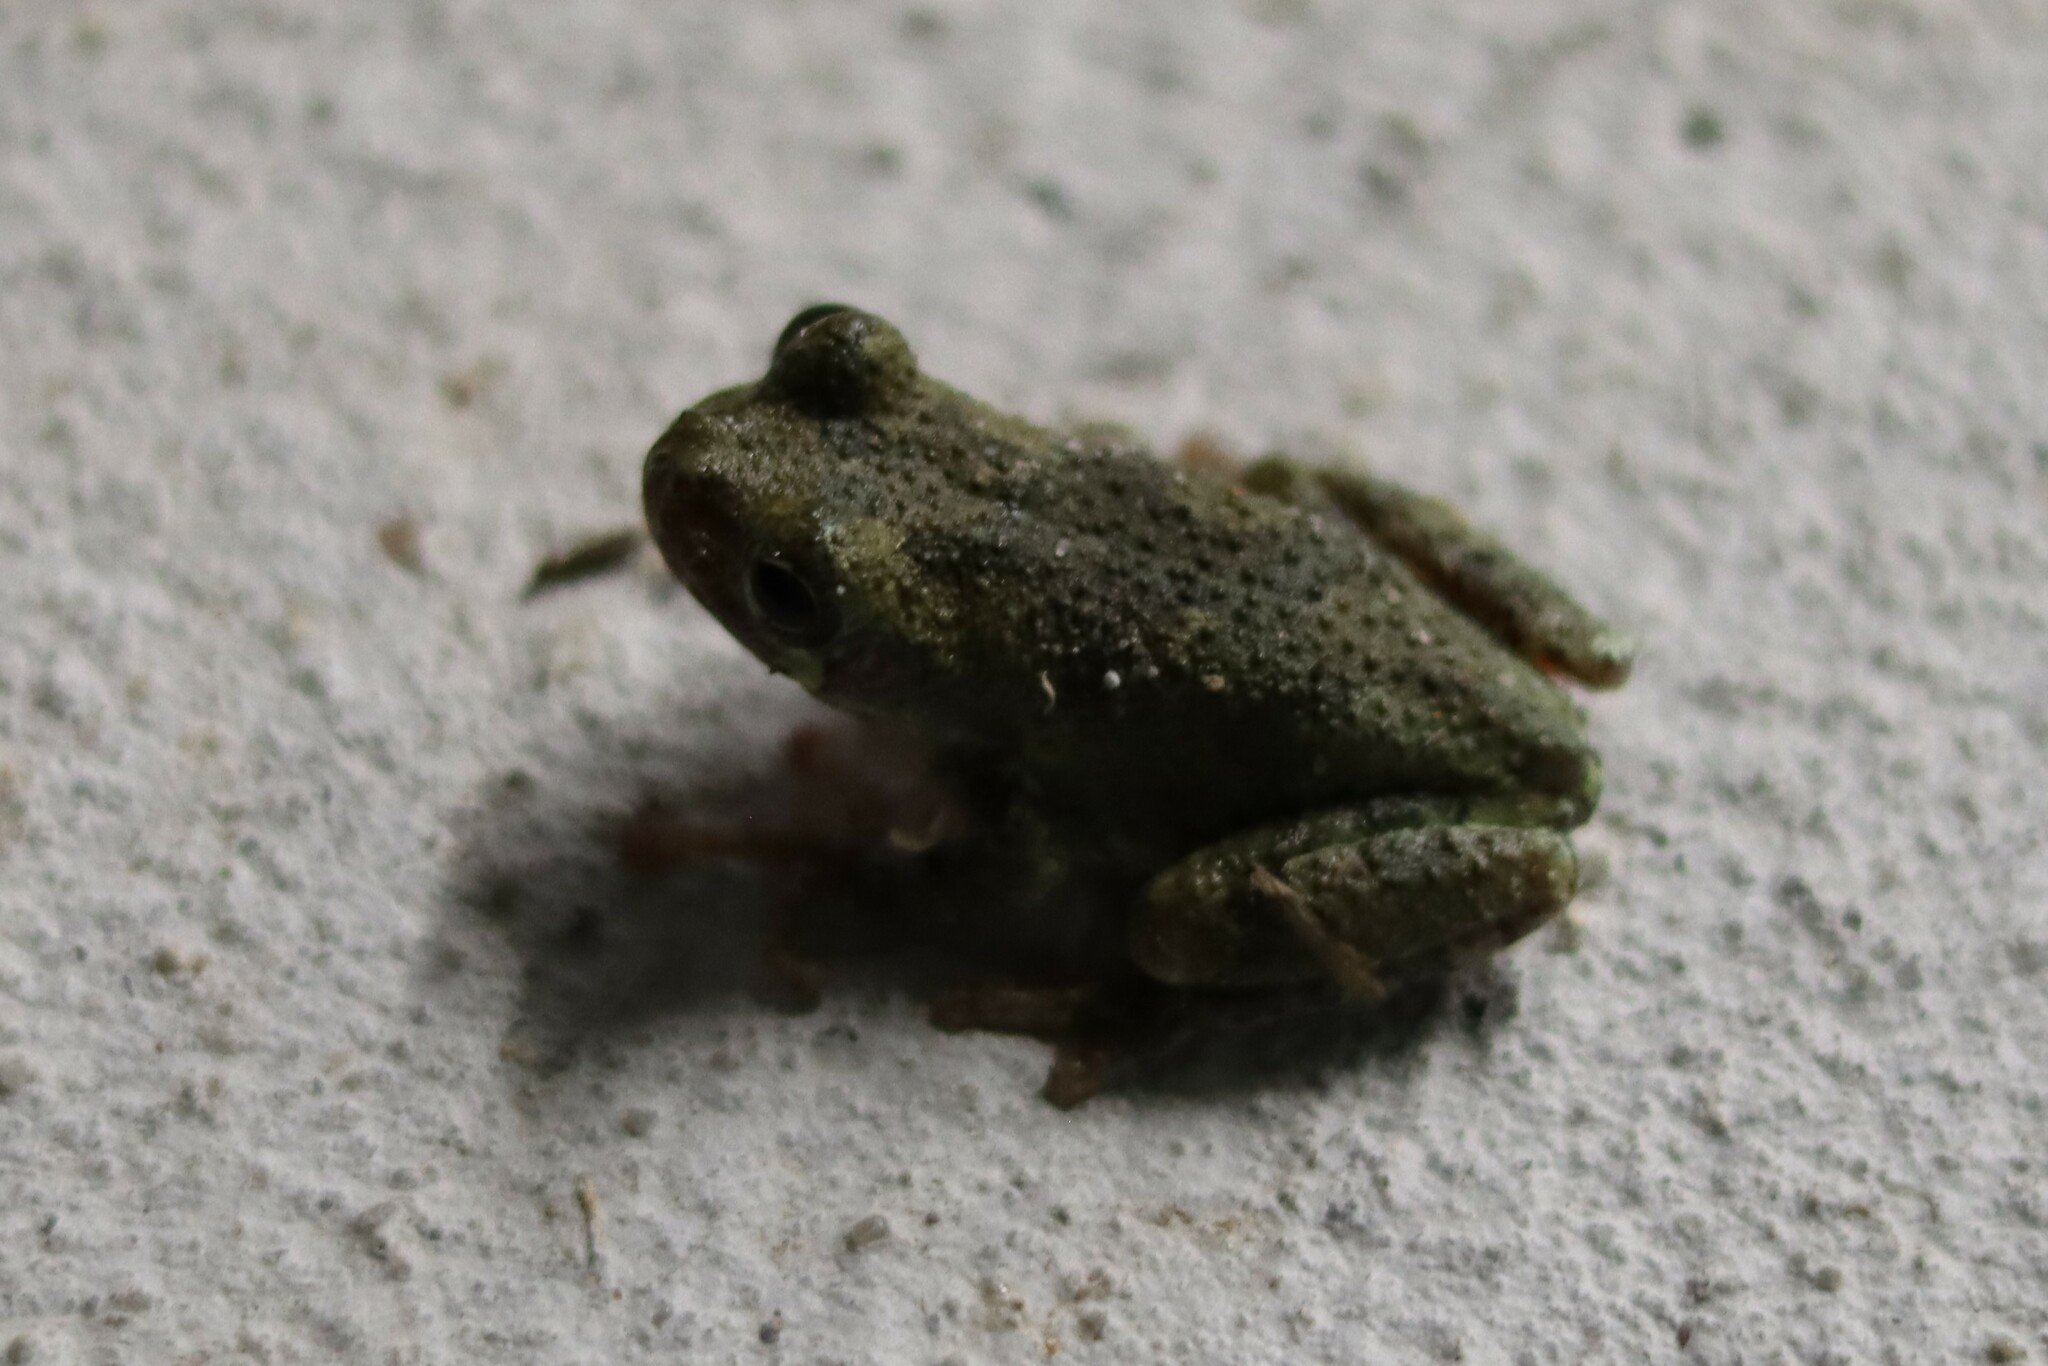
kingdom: Animalia
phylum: Chordata
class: Amphibia
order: Anura
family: Hylidae
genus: Dryophytes
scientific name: Dryophytes chrysoscelis
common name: Cope's gray treefrog
